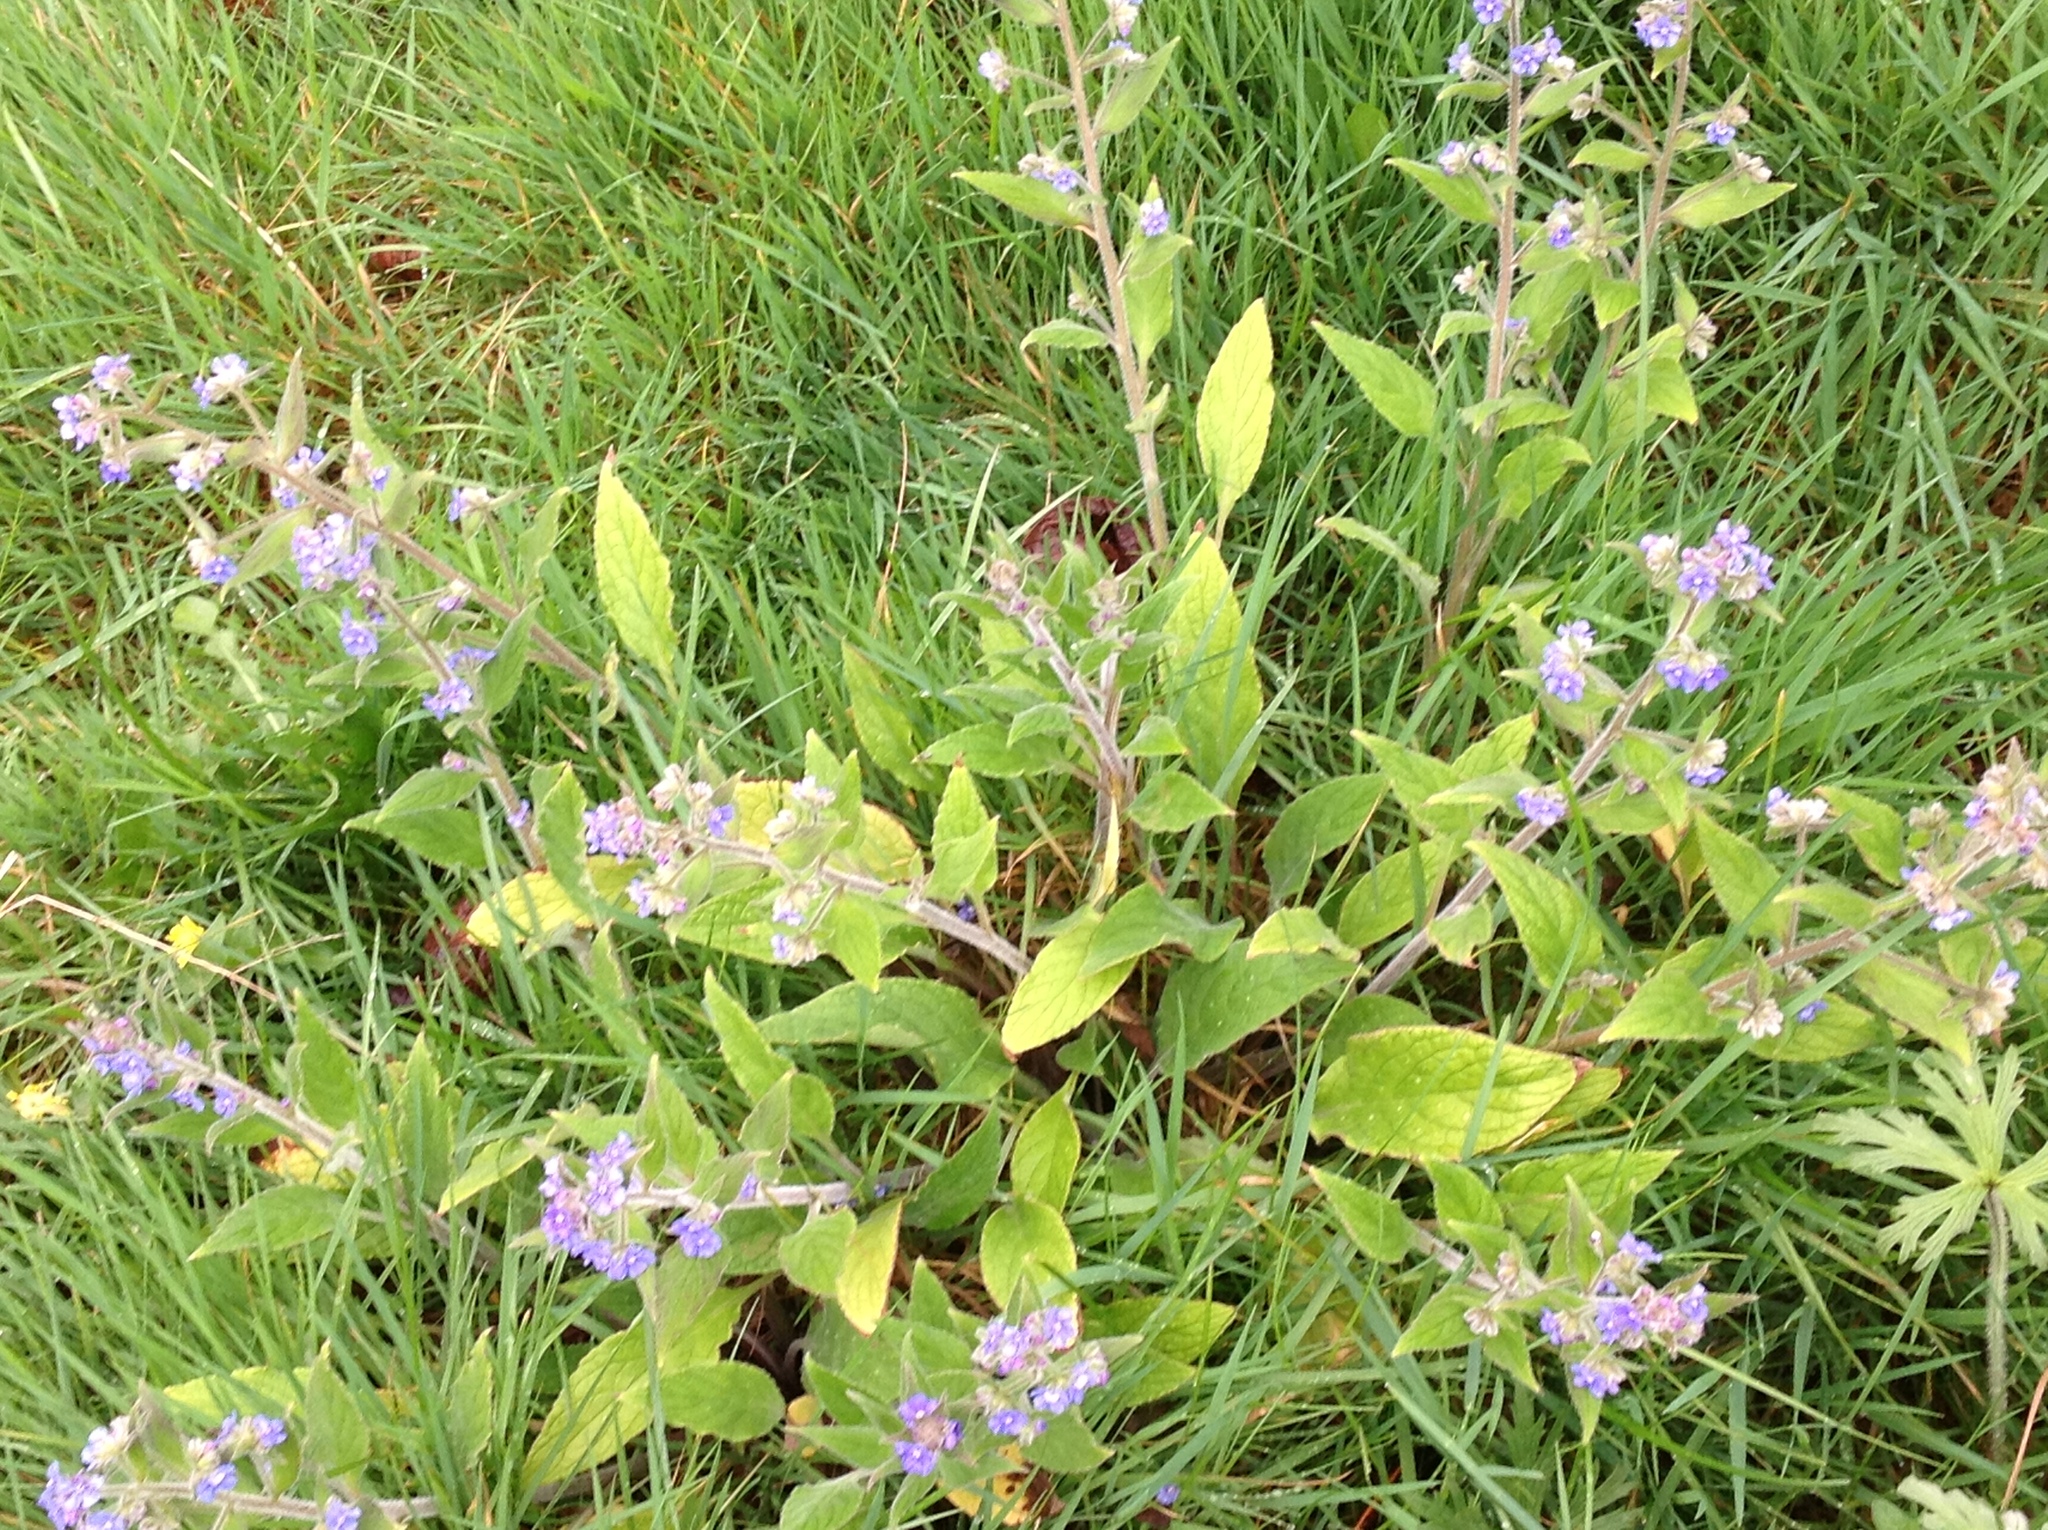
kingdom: Plantae
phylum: Tracheophyta
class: Magnoliopsida
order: Boraginales
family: Boraginaceae
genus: Pentaglottis
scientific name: Pentaglottis sempervirens
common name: Green alkanet
